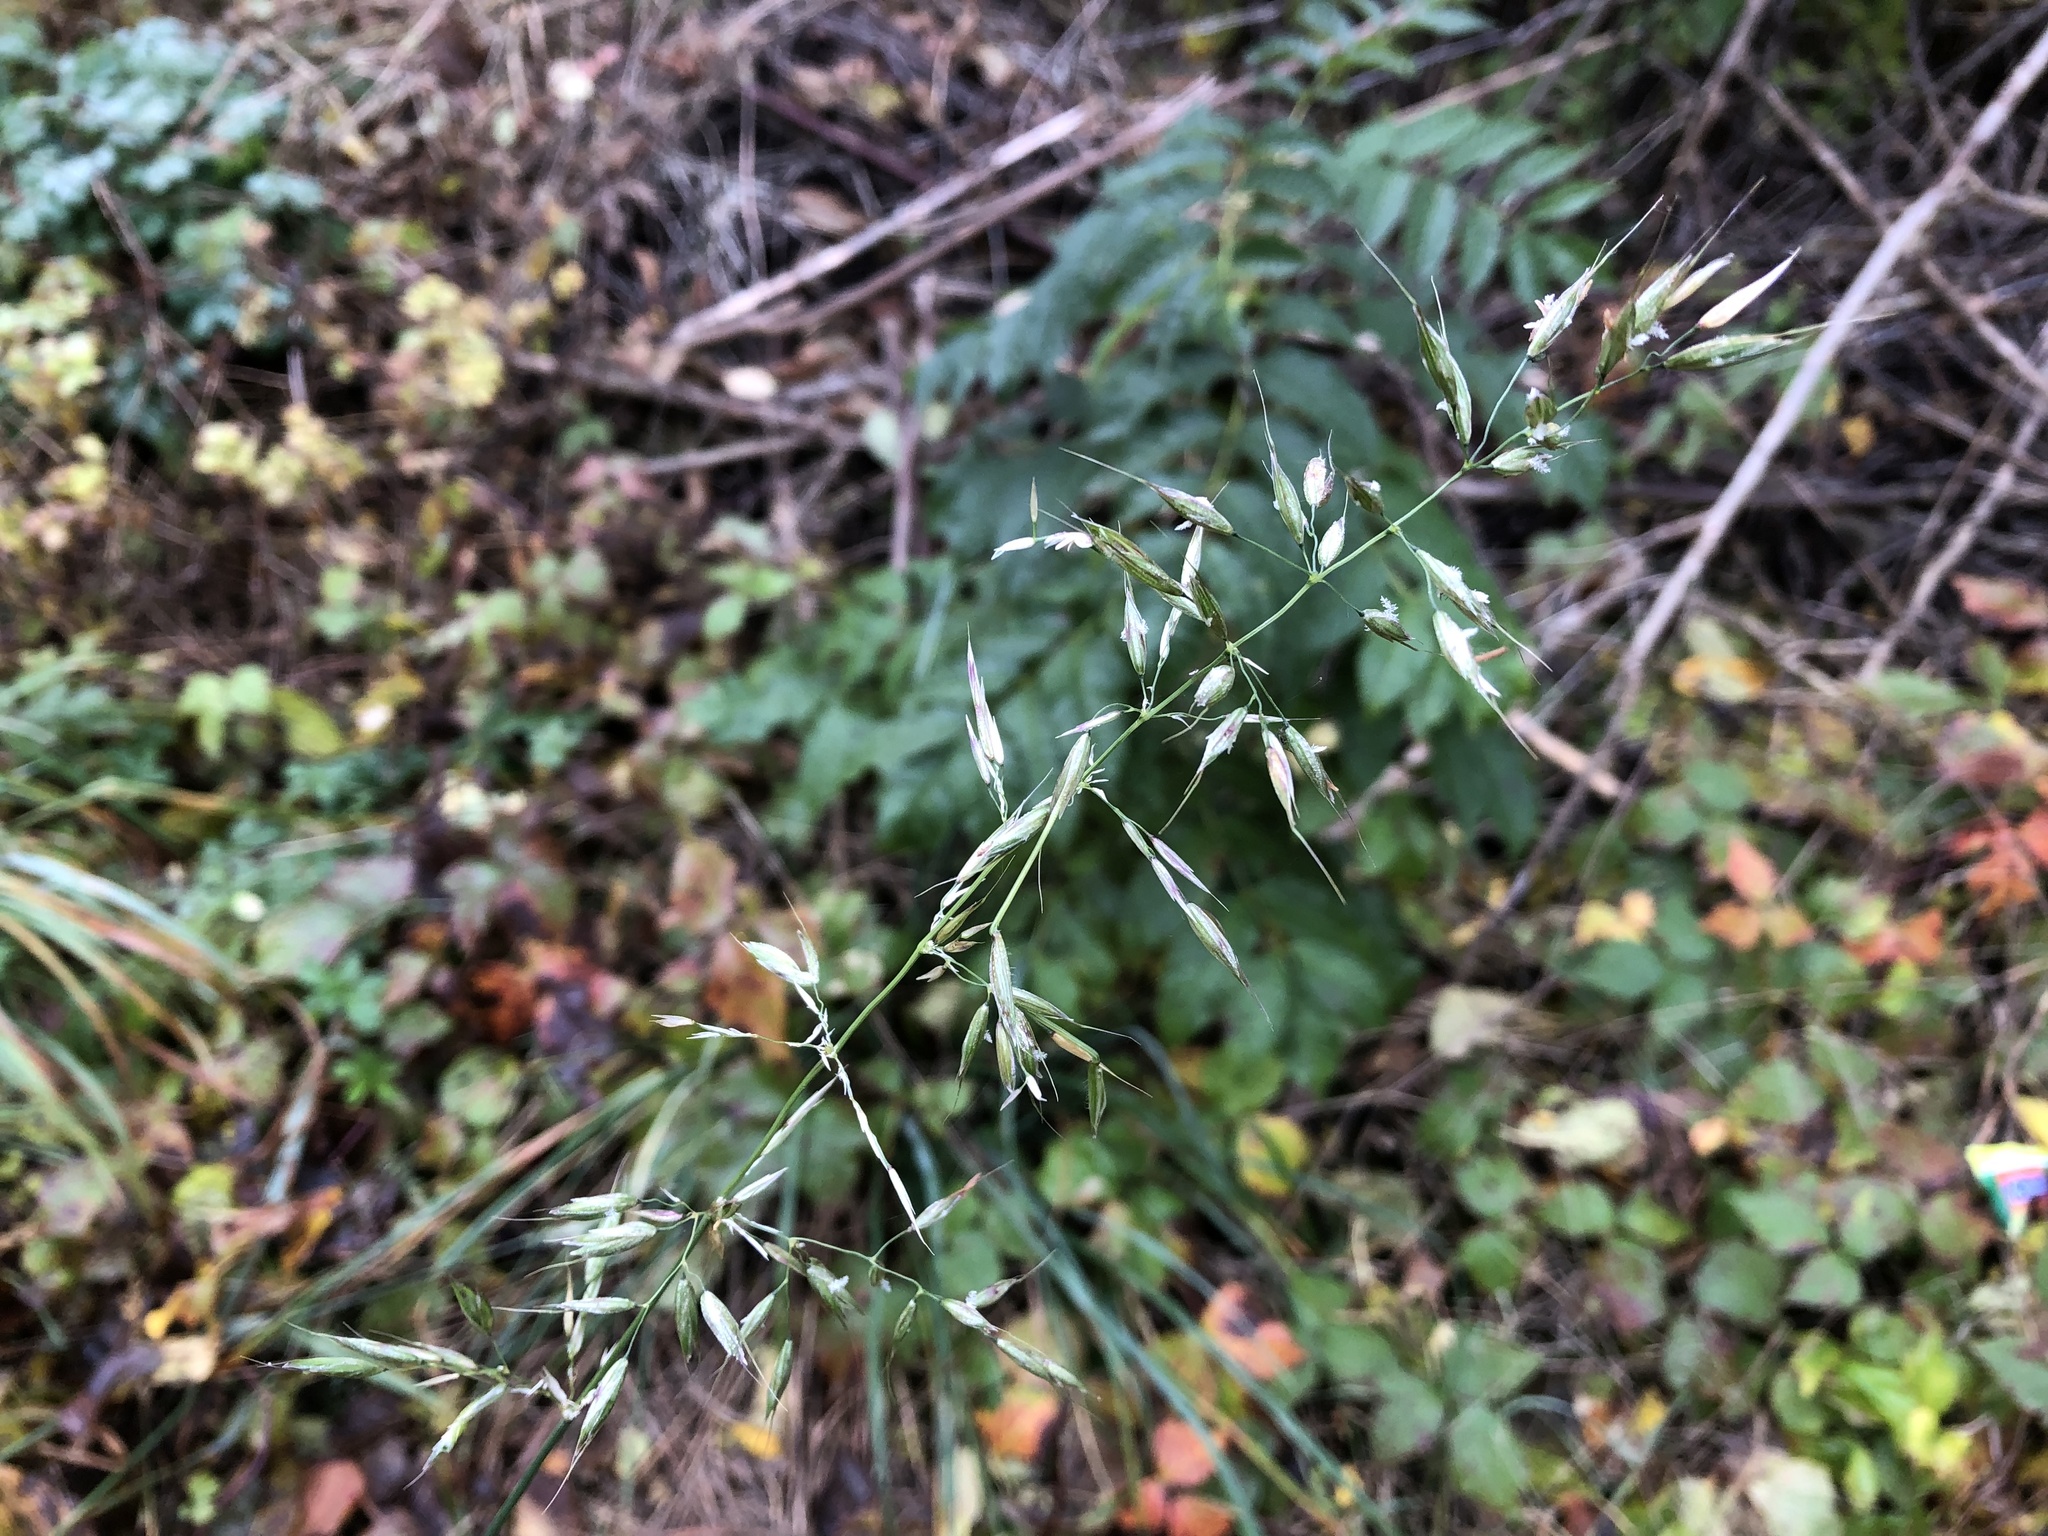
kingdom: Plantae
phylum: Tracheophyta
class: Liliopsida
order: Poales
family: Poaceae
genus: Arrhenatherum
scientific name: Arrhenatherum elatius
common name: Tall oatgrass
